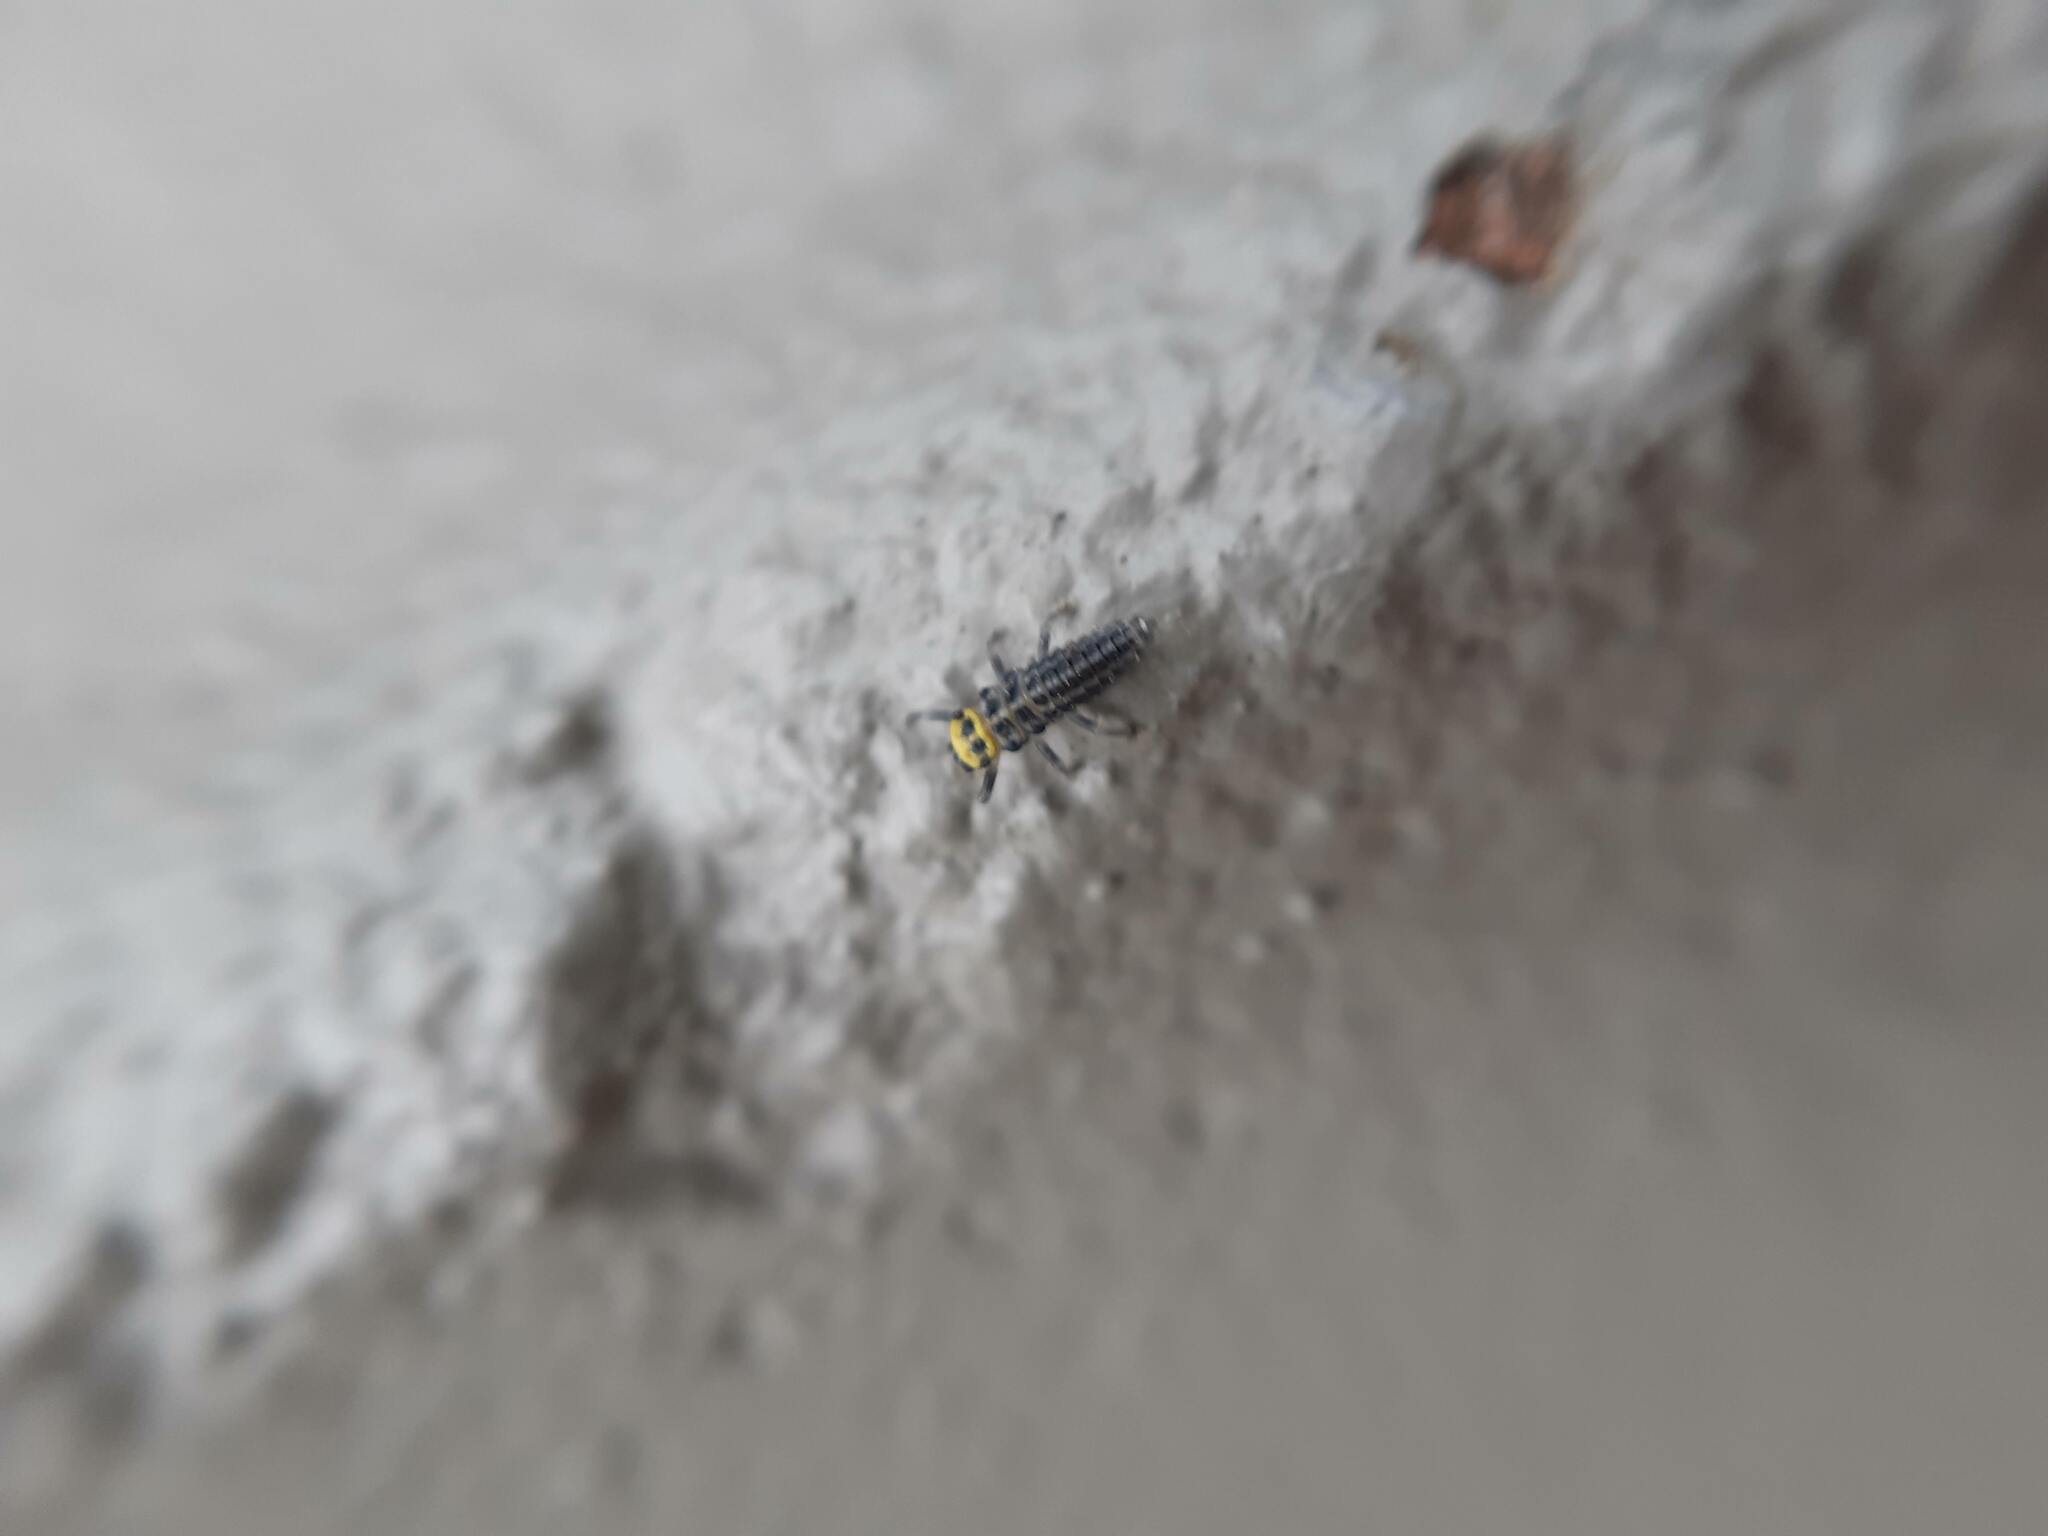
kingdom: Animalia
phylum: Arthropoda
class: Insecta
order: Coleoptera
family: Coccinellidae
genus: Illeis
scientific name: Illeis galbula
